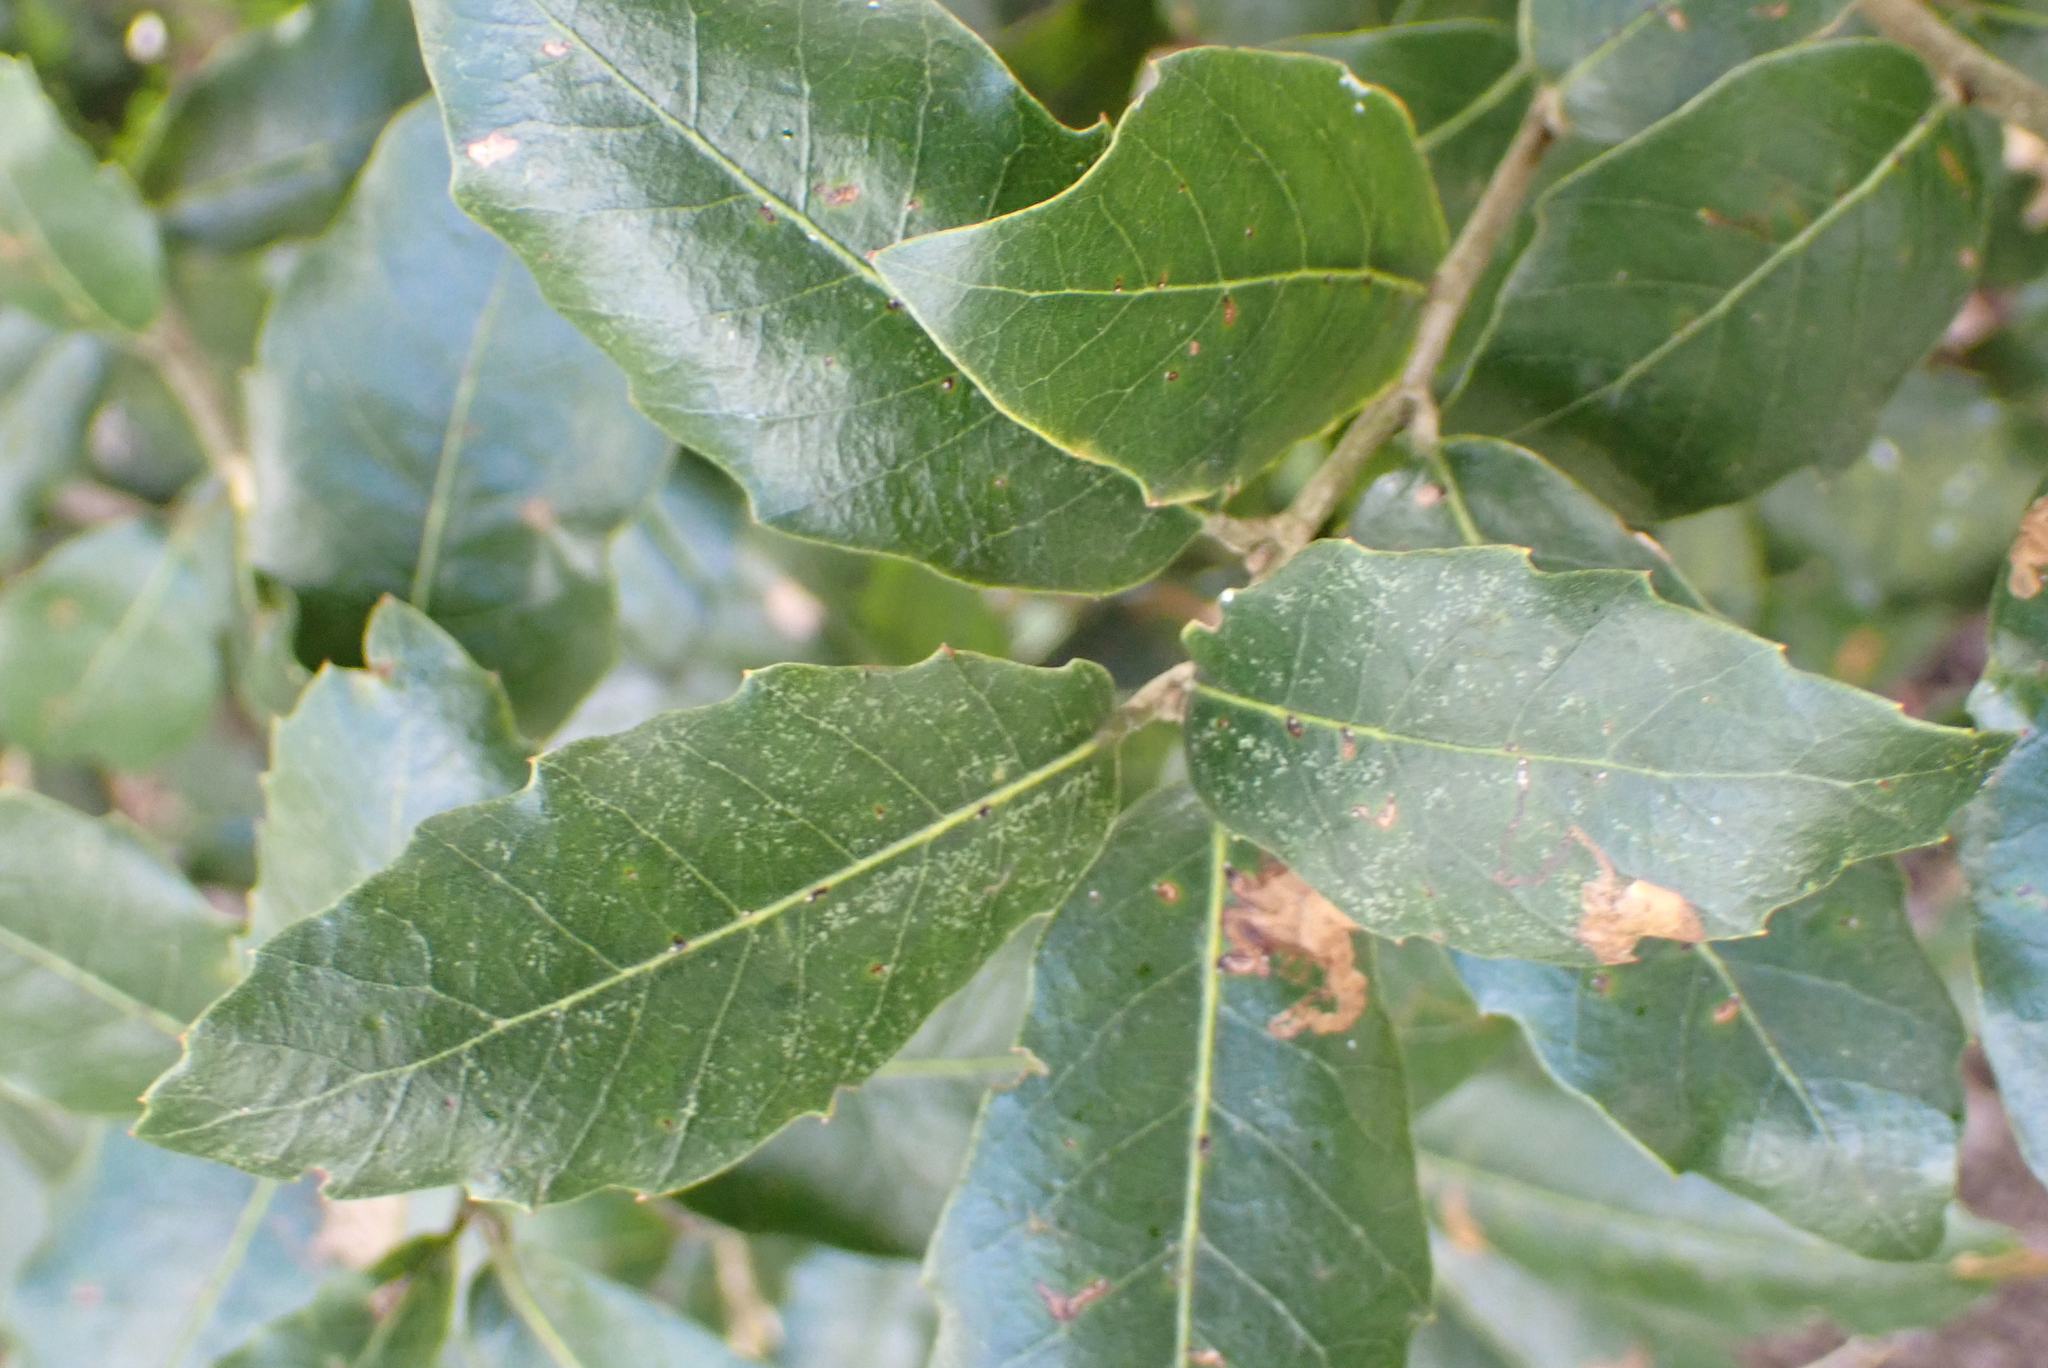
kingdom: Plantae
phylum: Tracheophyta
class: Magnoliopsida
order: Fagales
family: Fagaceae
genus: Quercus
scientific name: Quercus ilex
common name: Evergreen oak
